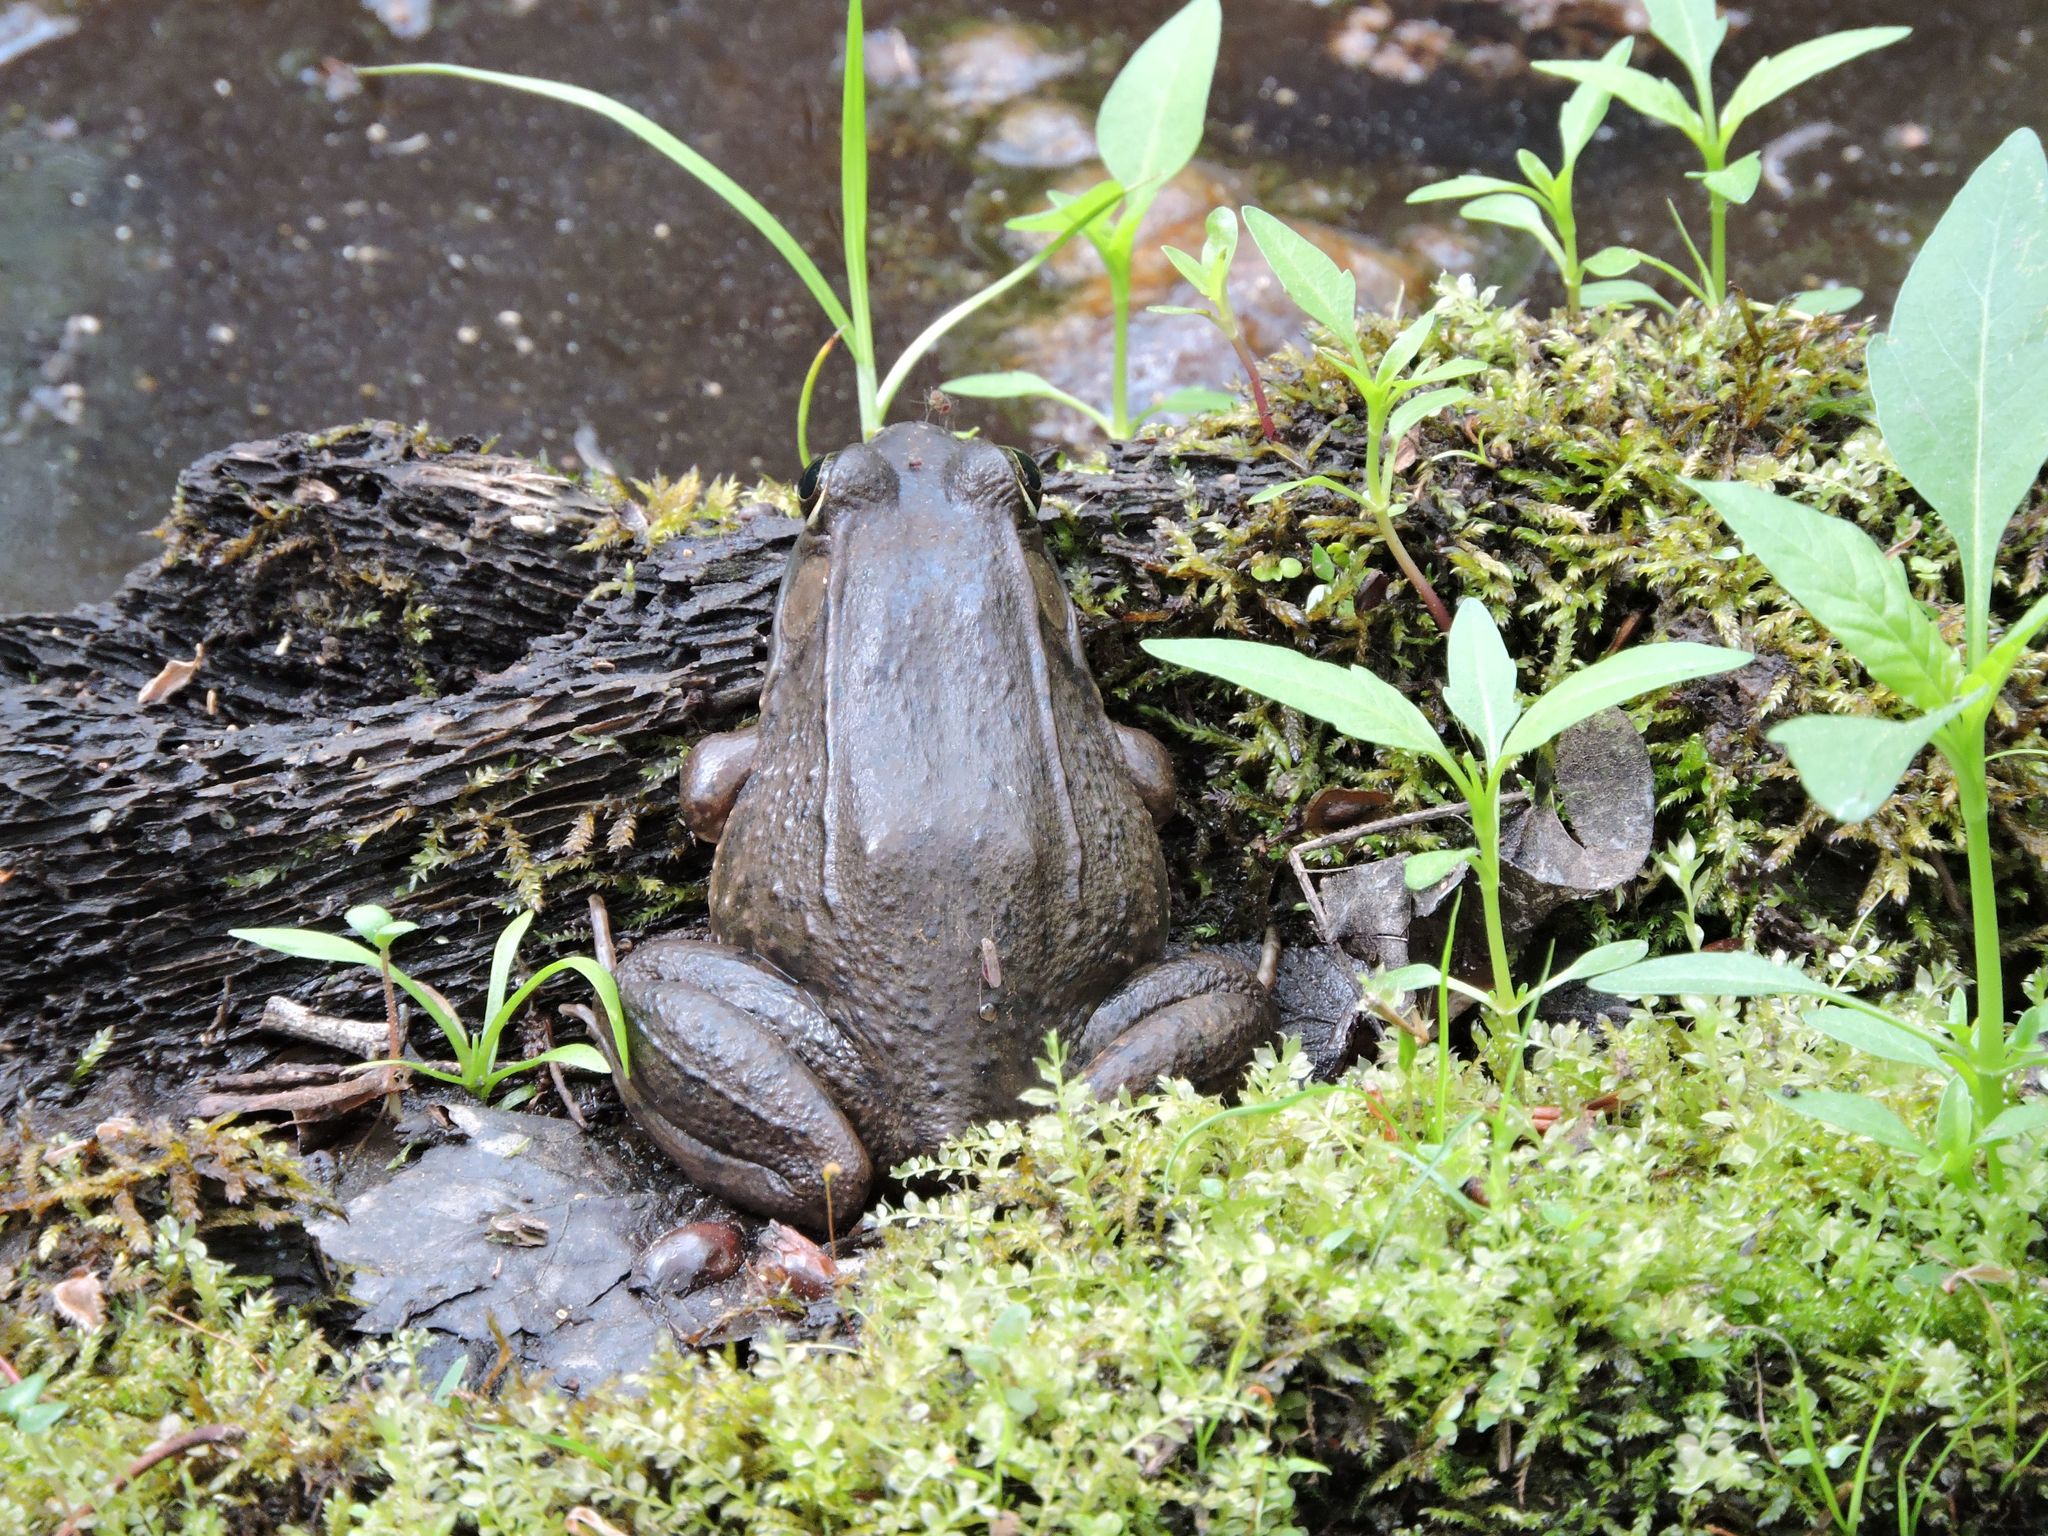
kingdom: Animalia
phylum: Chordata
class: Amphibia
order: Anura
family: Ranidae
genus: Lithobates
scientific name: Lithobates clamitans
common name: Green frog
